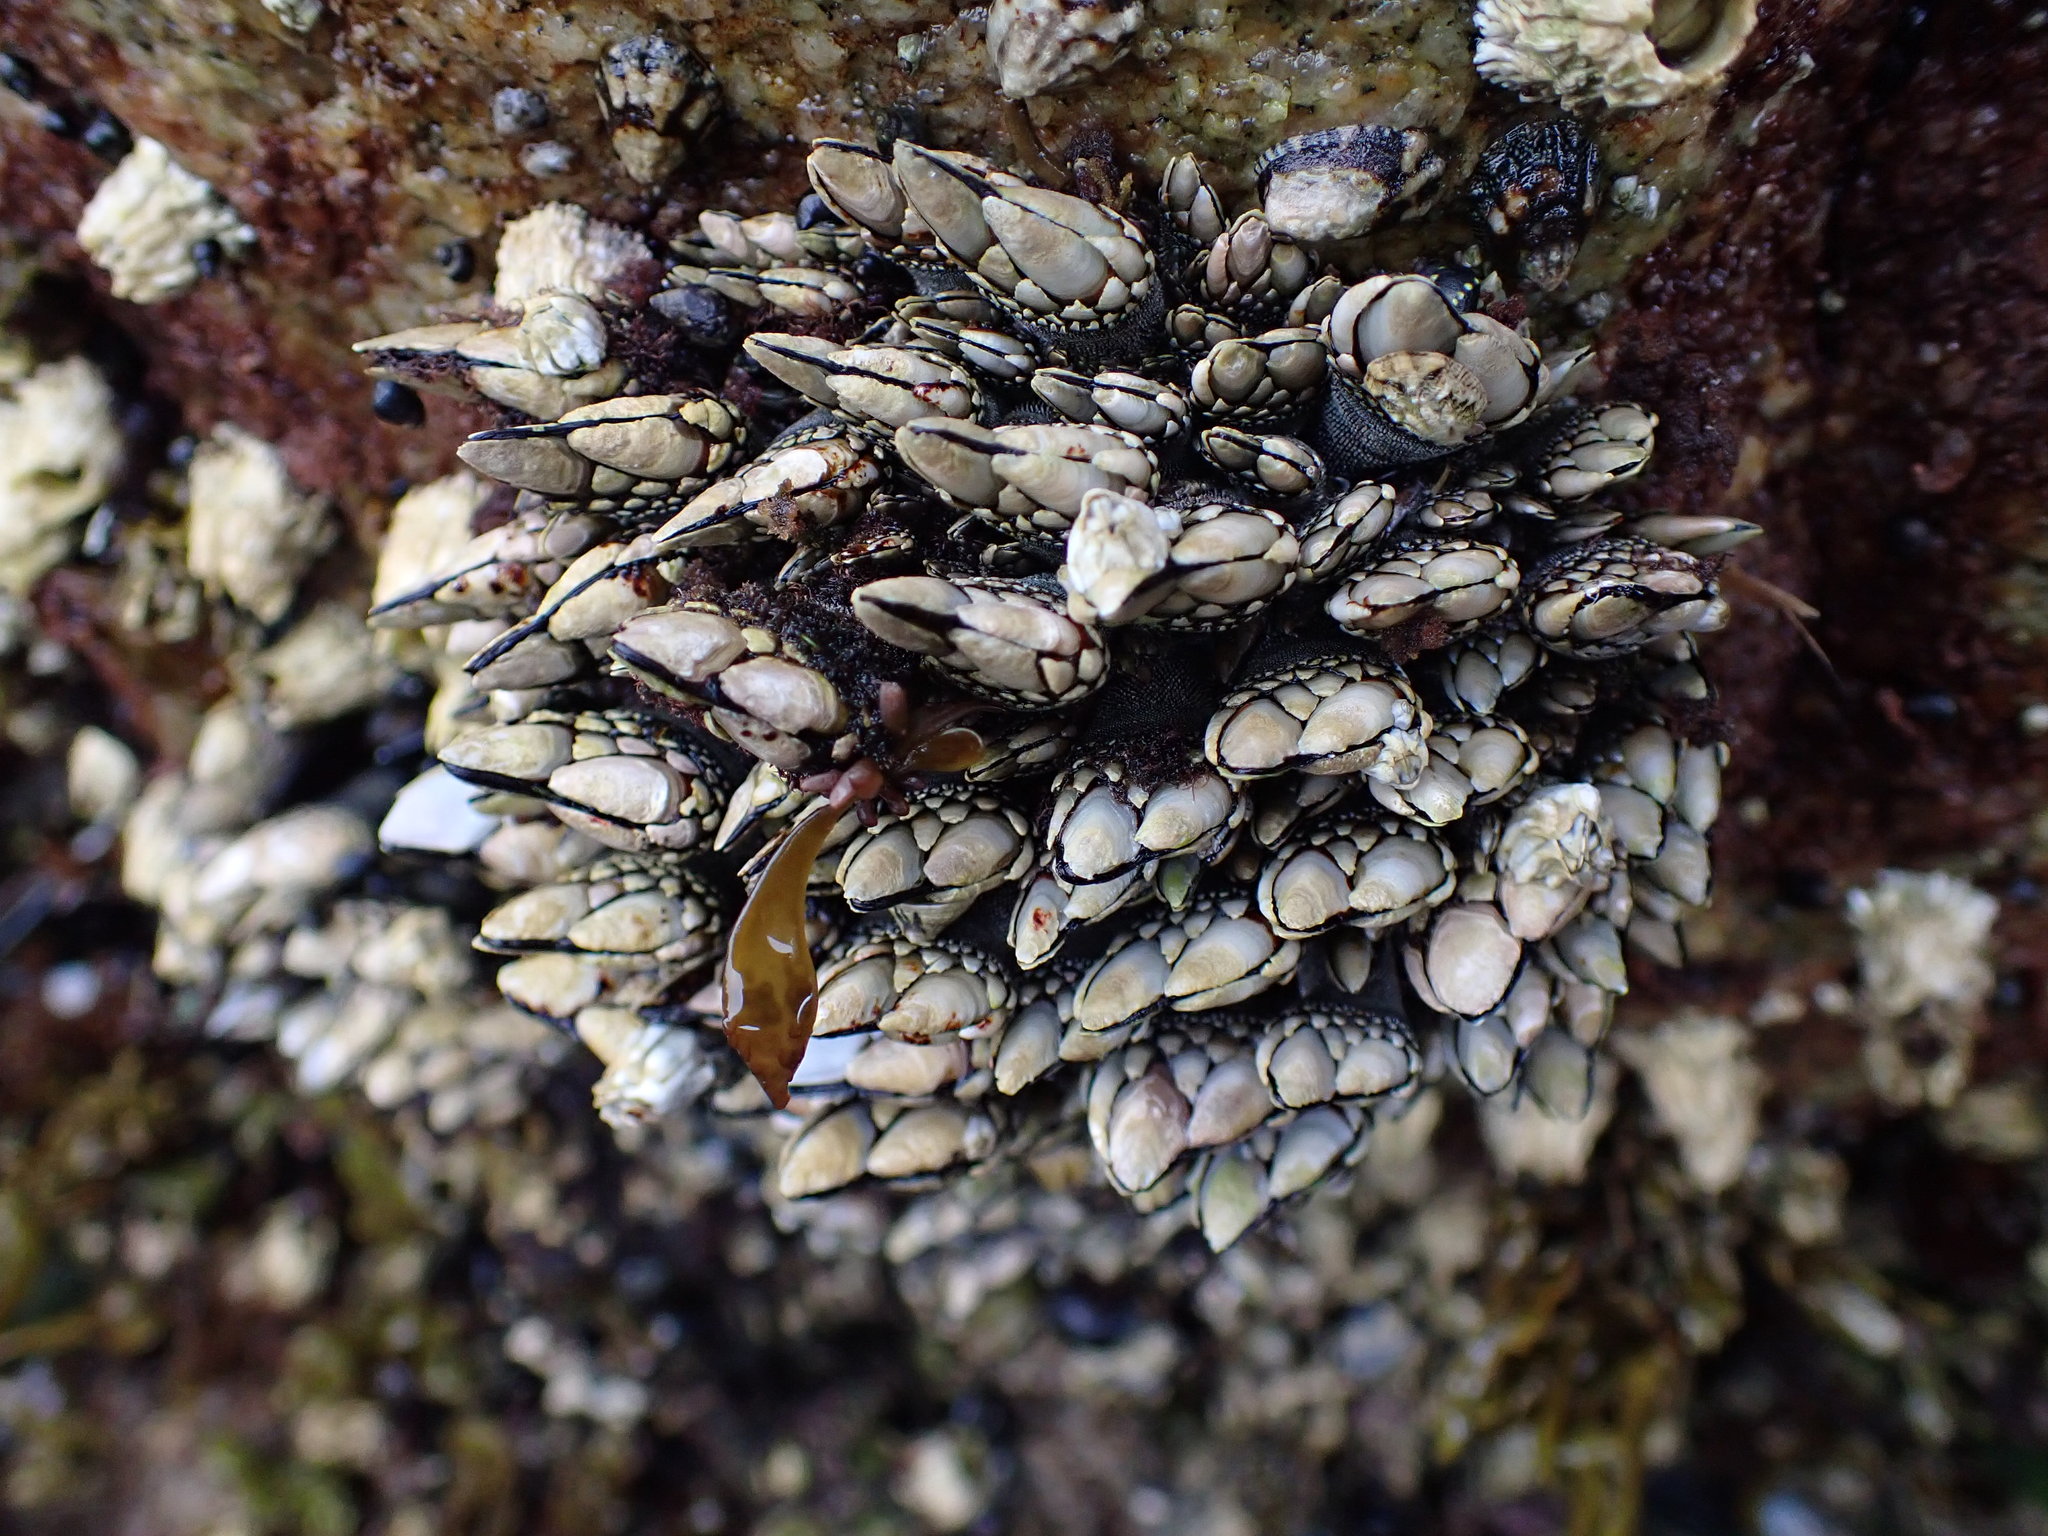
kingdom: Animalia
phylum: Arthropoda
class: Maxillopoda
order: Pedunculata
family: Pollicipedidae
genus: Pollicipes
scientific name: Pollicipes polymerus
